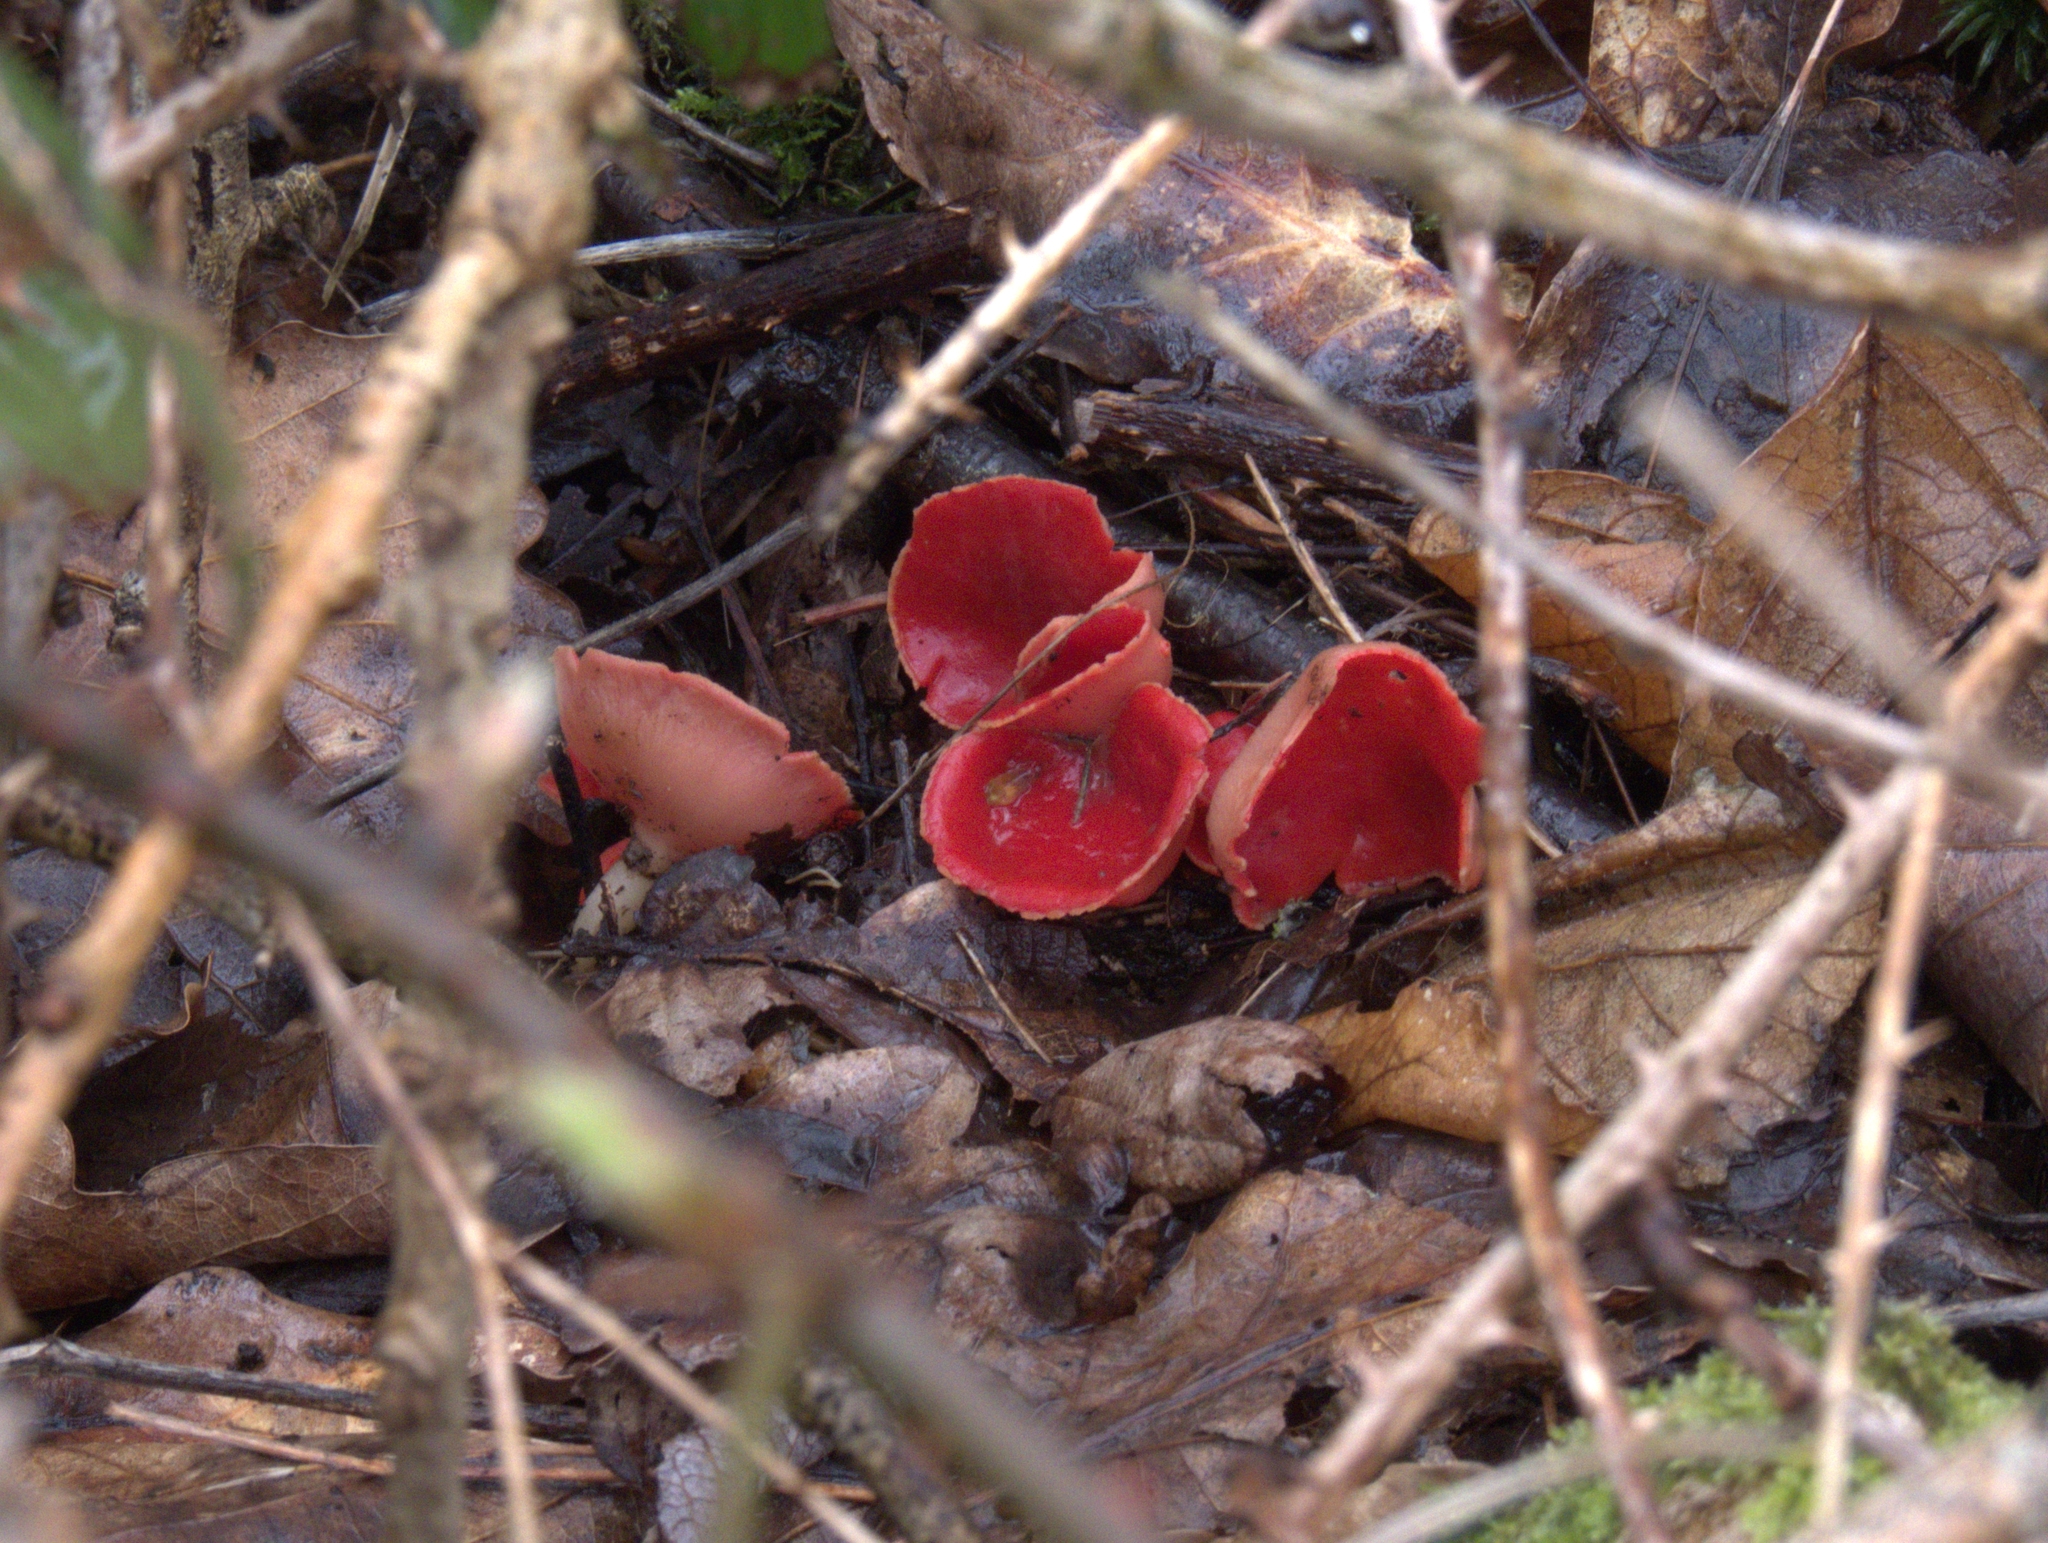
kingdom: Fungi
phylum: Ascomycota
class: Pezizomycetes
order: Pezizales
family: Sarcoscyphaceae
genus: Sarcoscypha
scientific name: Sarcoscypha
